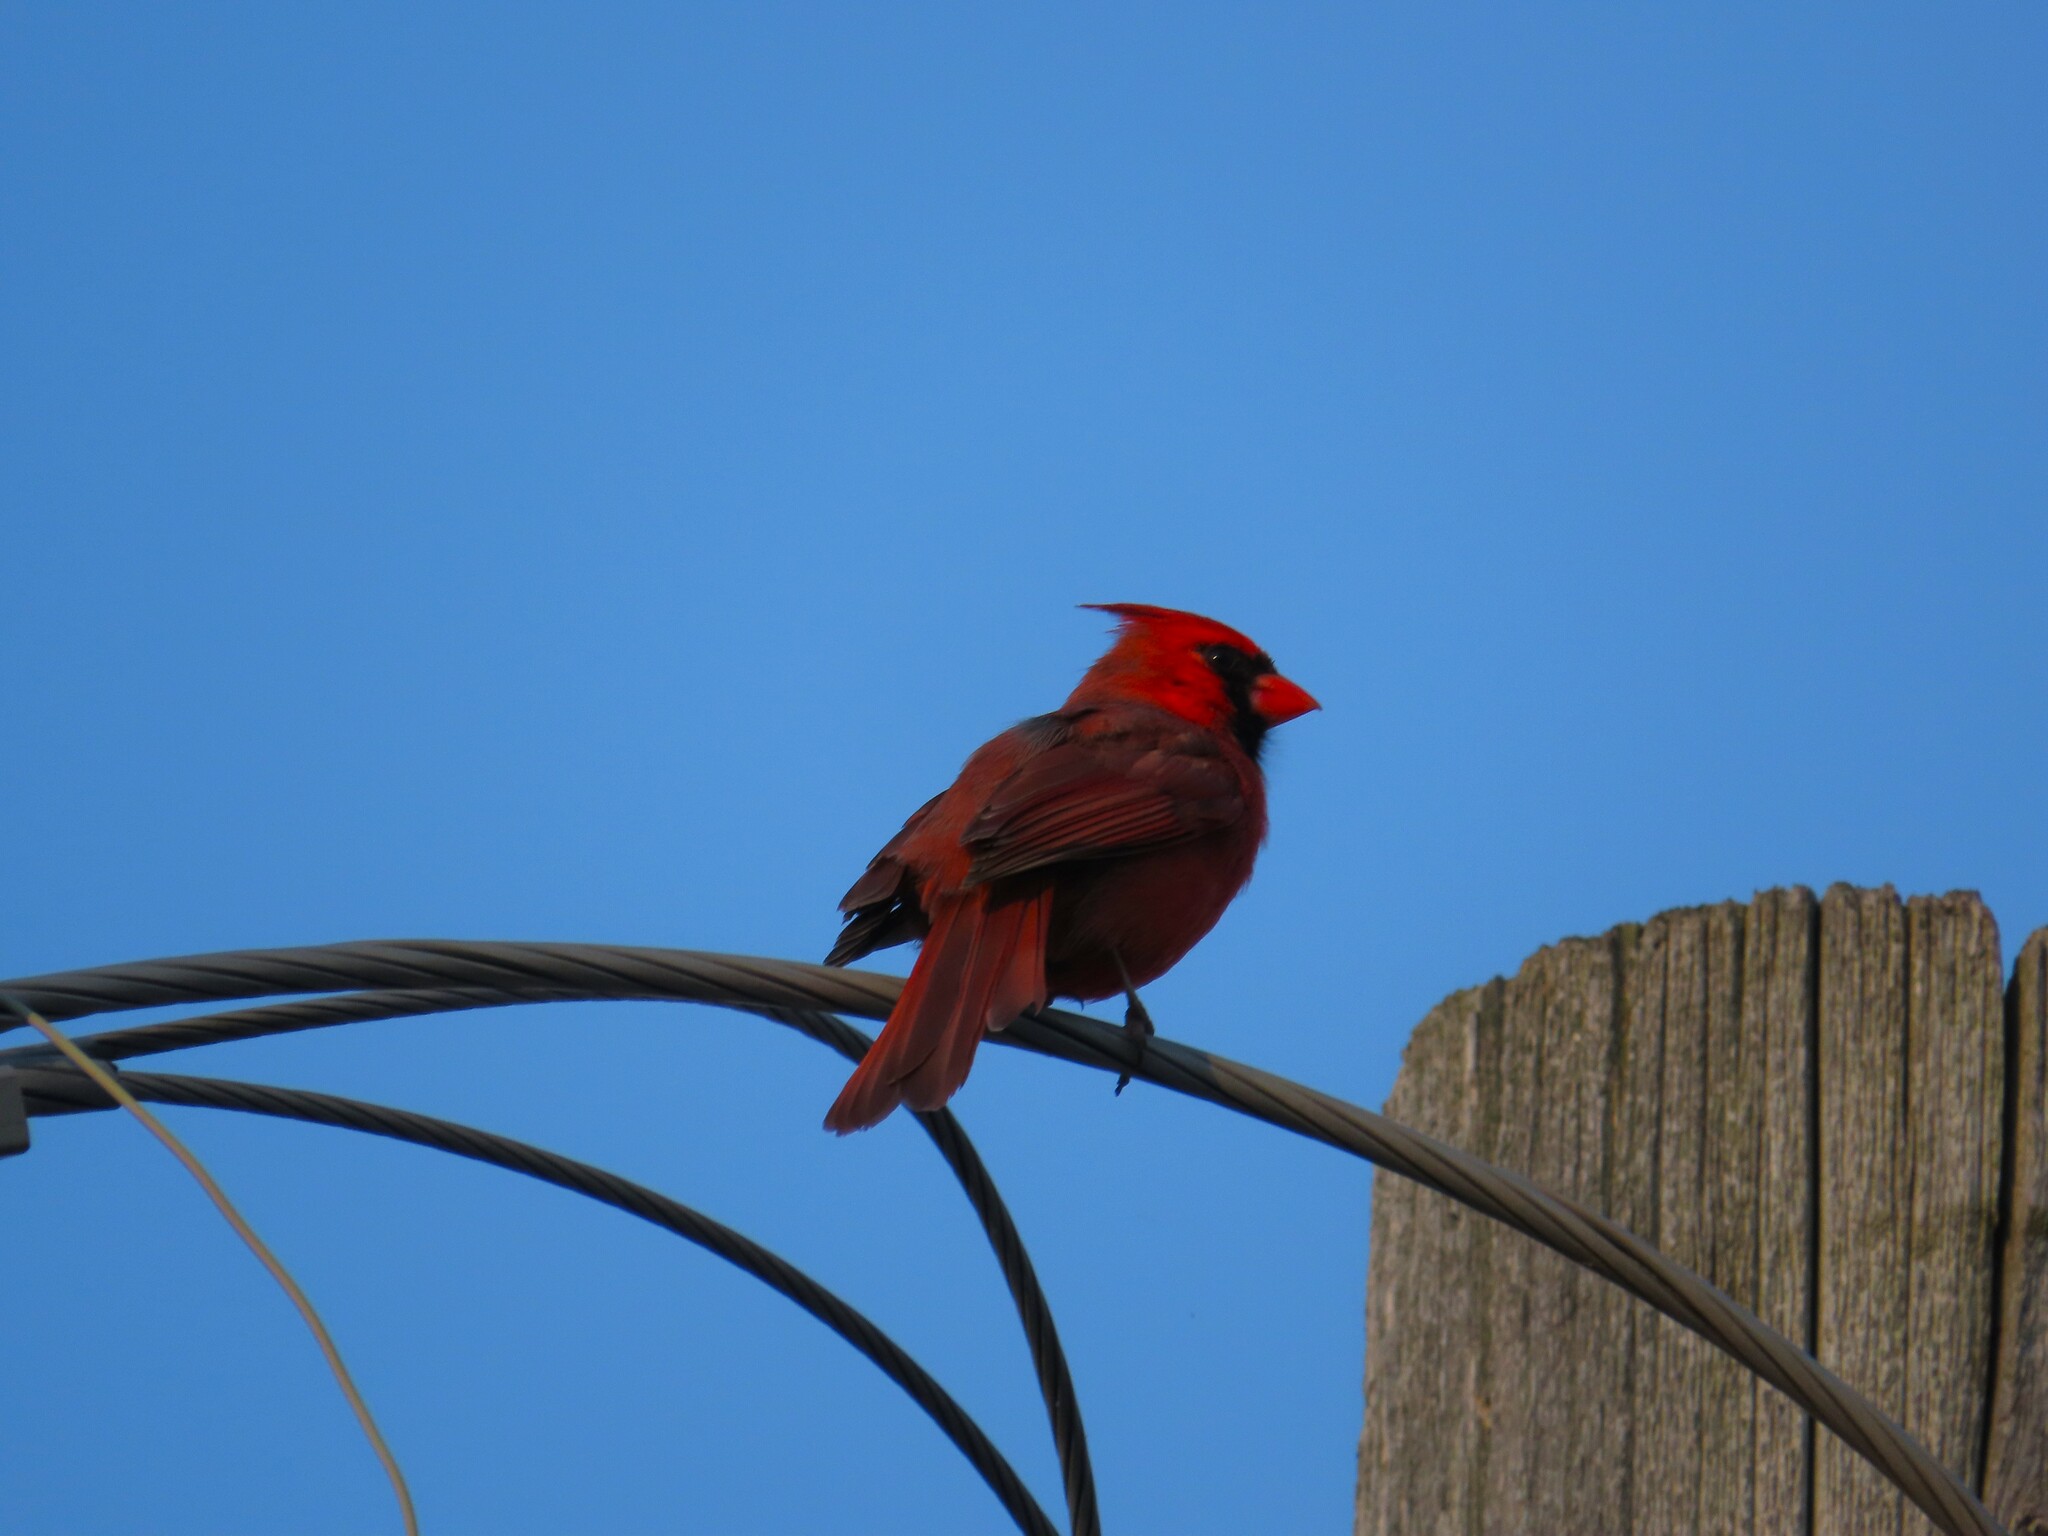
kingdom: Animalia
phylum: Chordata
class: Aves
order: Passeriformes
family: Cardinalidae
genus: Cardinalis
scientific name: Cardinalis cardinalis
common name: Northern cardinal
